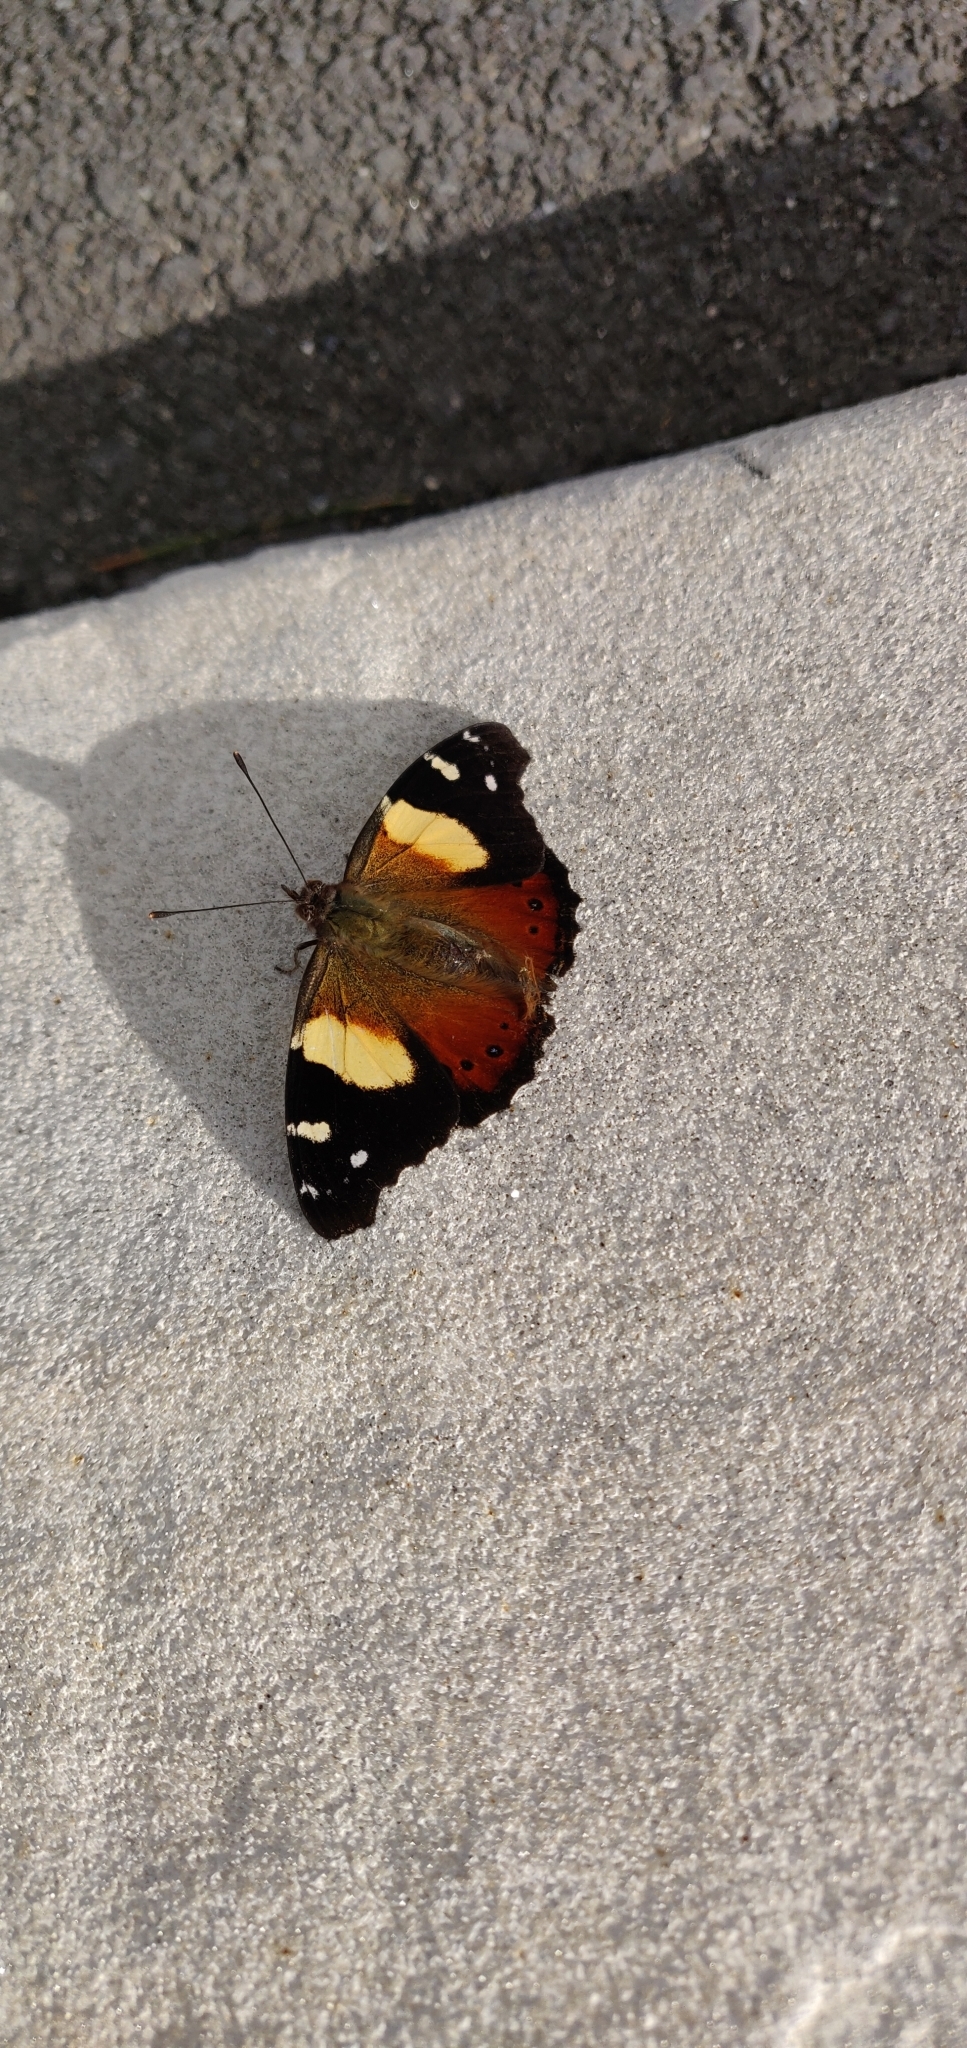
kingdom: Animalia
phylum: Arthropoda
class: Insecta
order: Lepidoptera
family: Nymphalidae
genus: Vanessa
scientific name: Vanessa itea
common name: Yellow admiral
